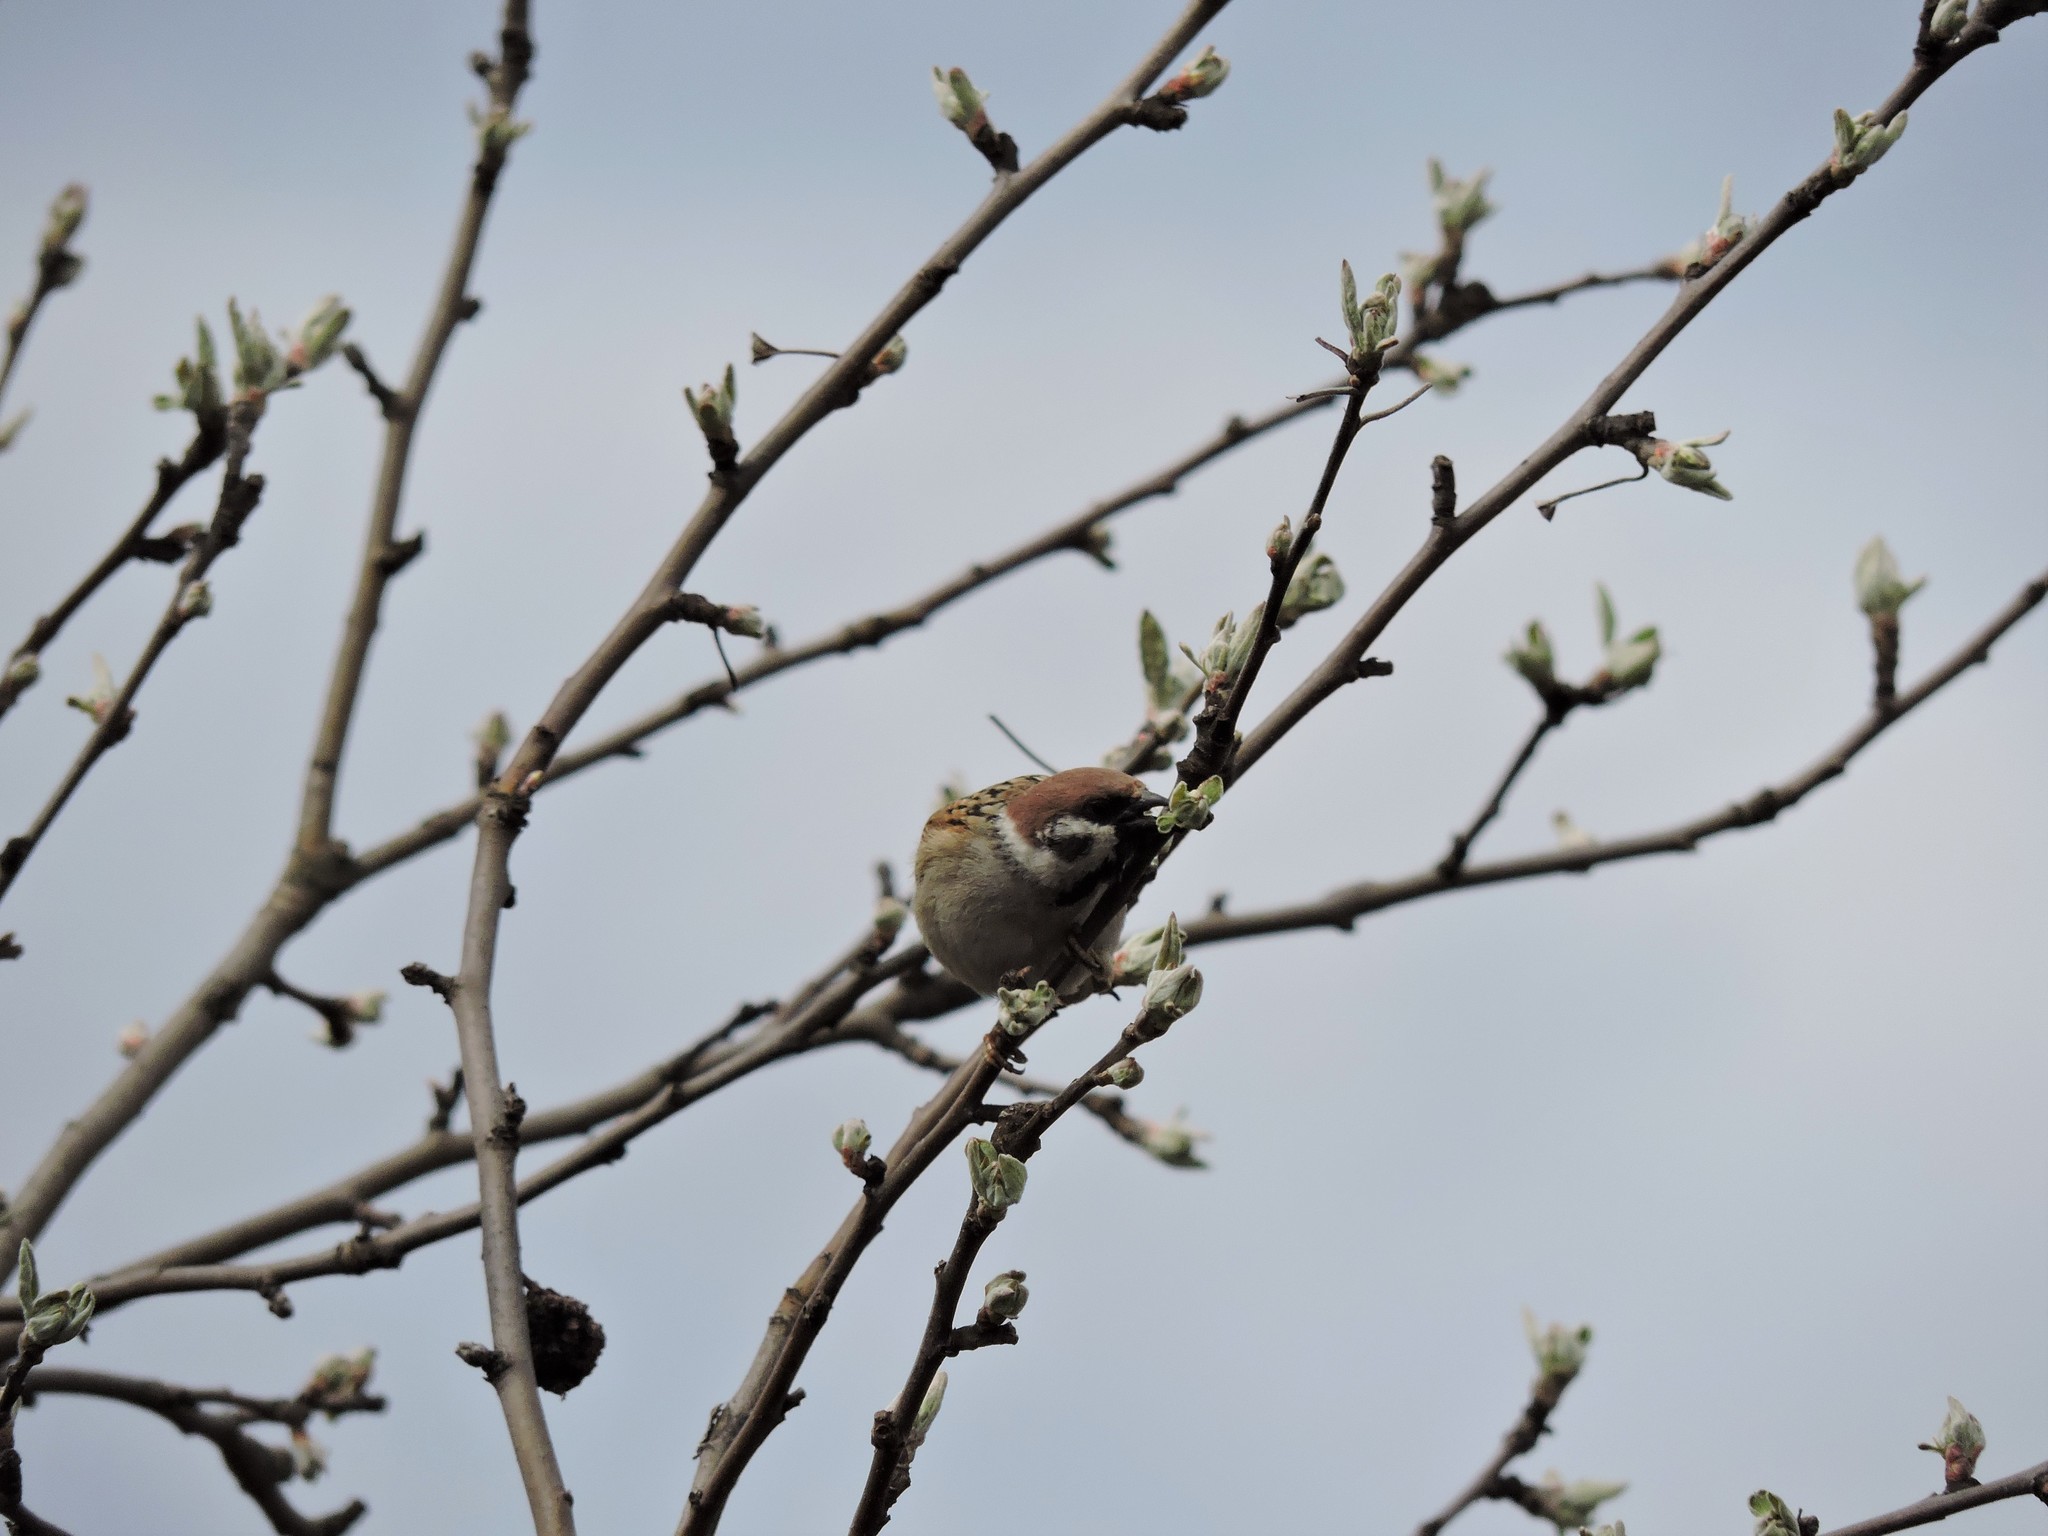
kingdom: Animalia
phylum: Chordata
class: Aves
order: Passeriformes
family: Passeridae
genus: Passer
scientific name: Passer montanus
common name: Eurasian tree sparrow
